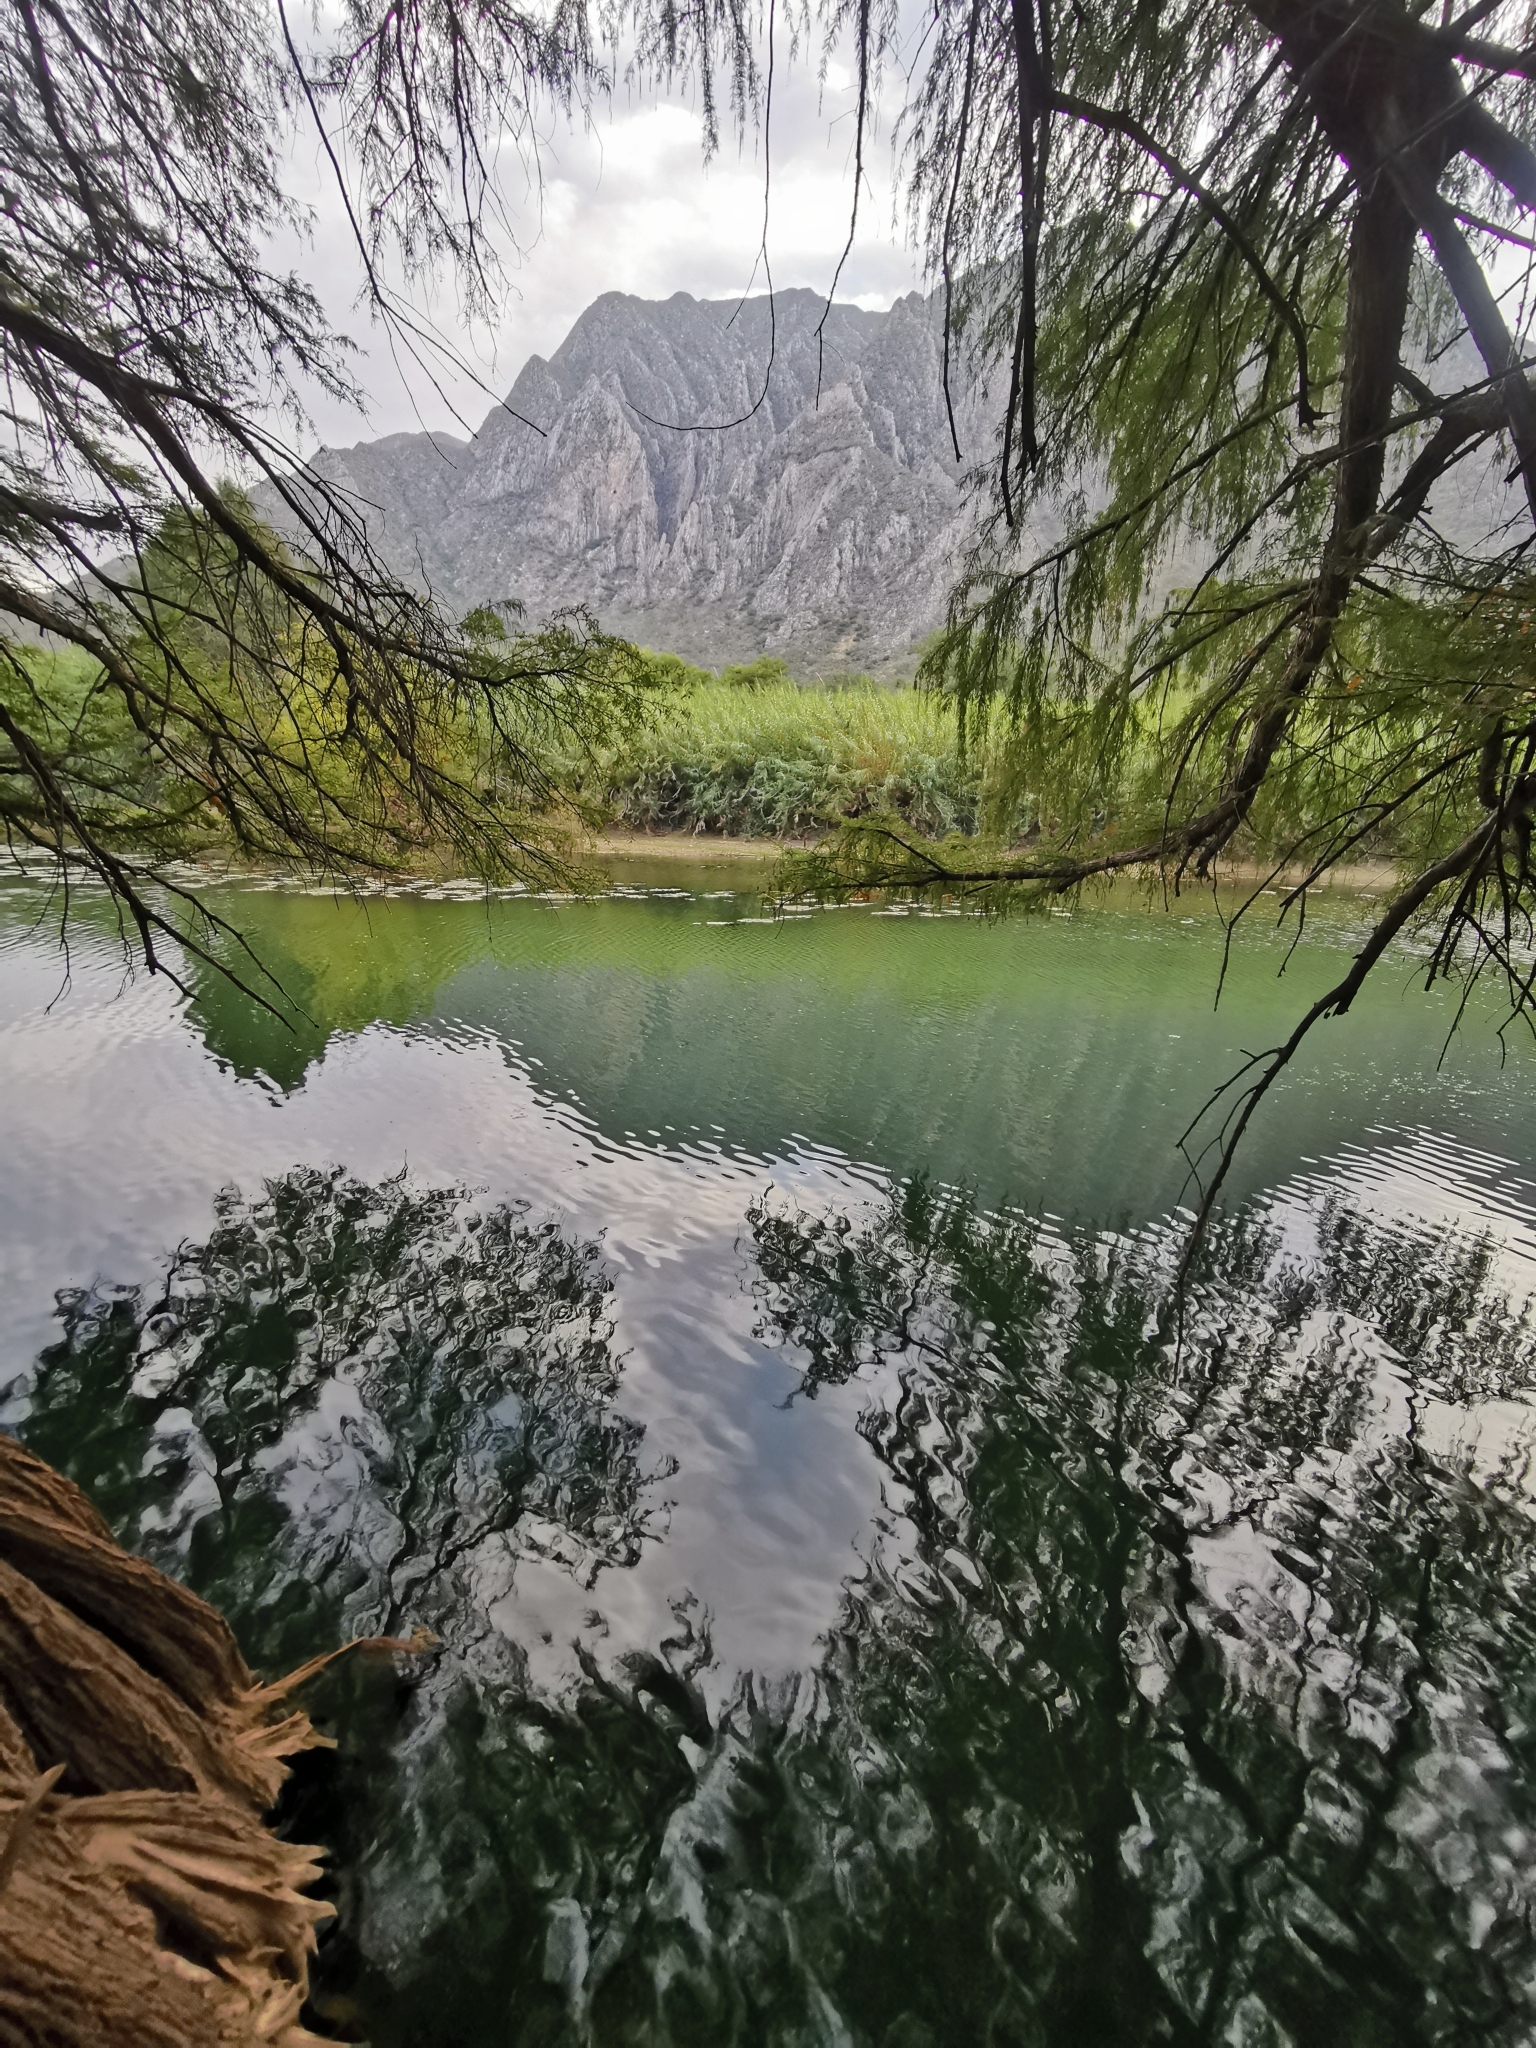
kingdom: Plantae
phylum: Tracheophyta
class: Pinopsida
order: Pinales
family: Cupressaceae
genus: Taxodium
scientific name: Taxodium mucronatum
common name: Montezume bald cypress
